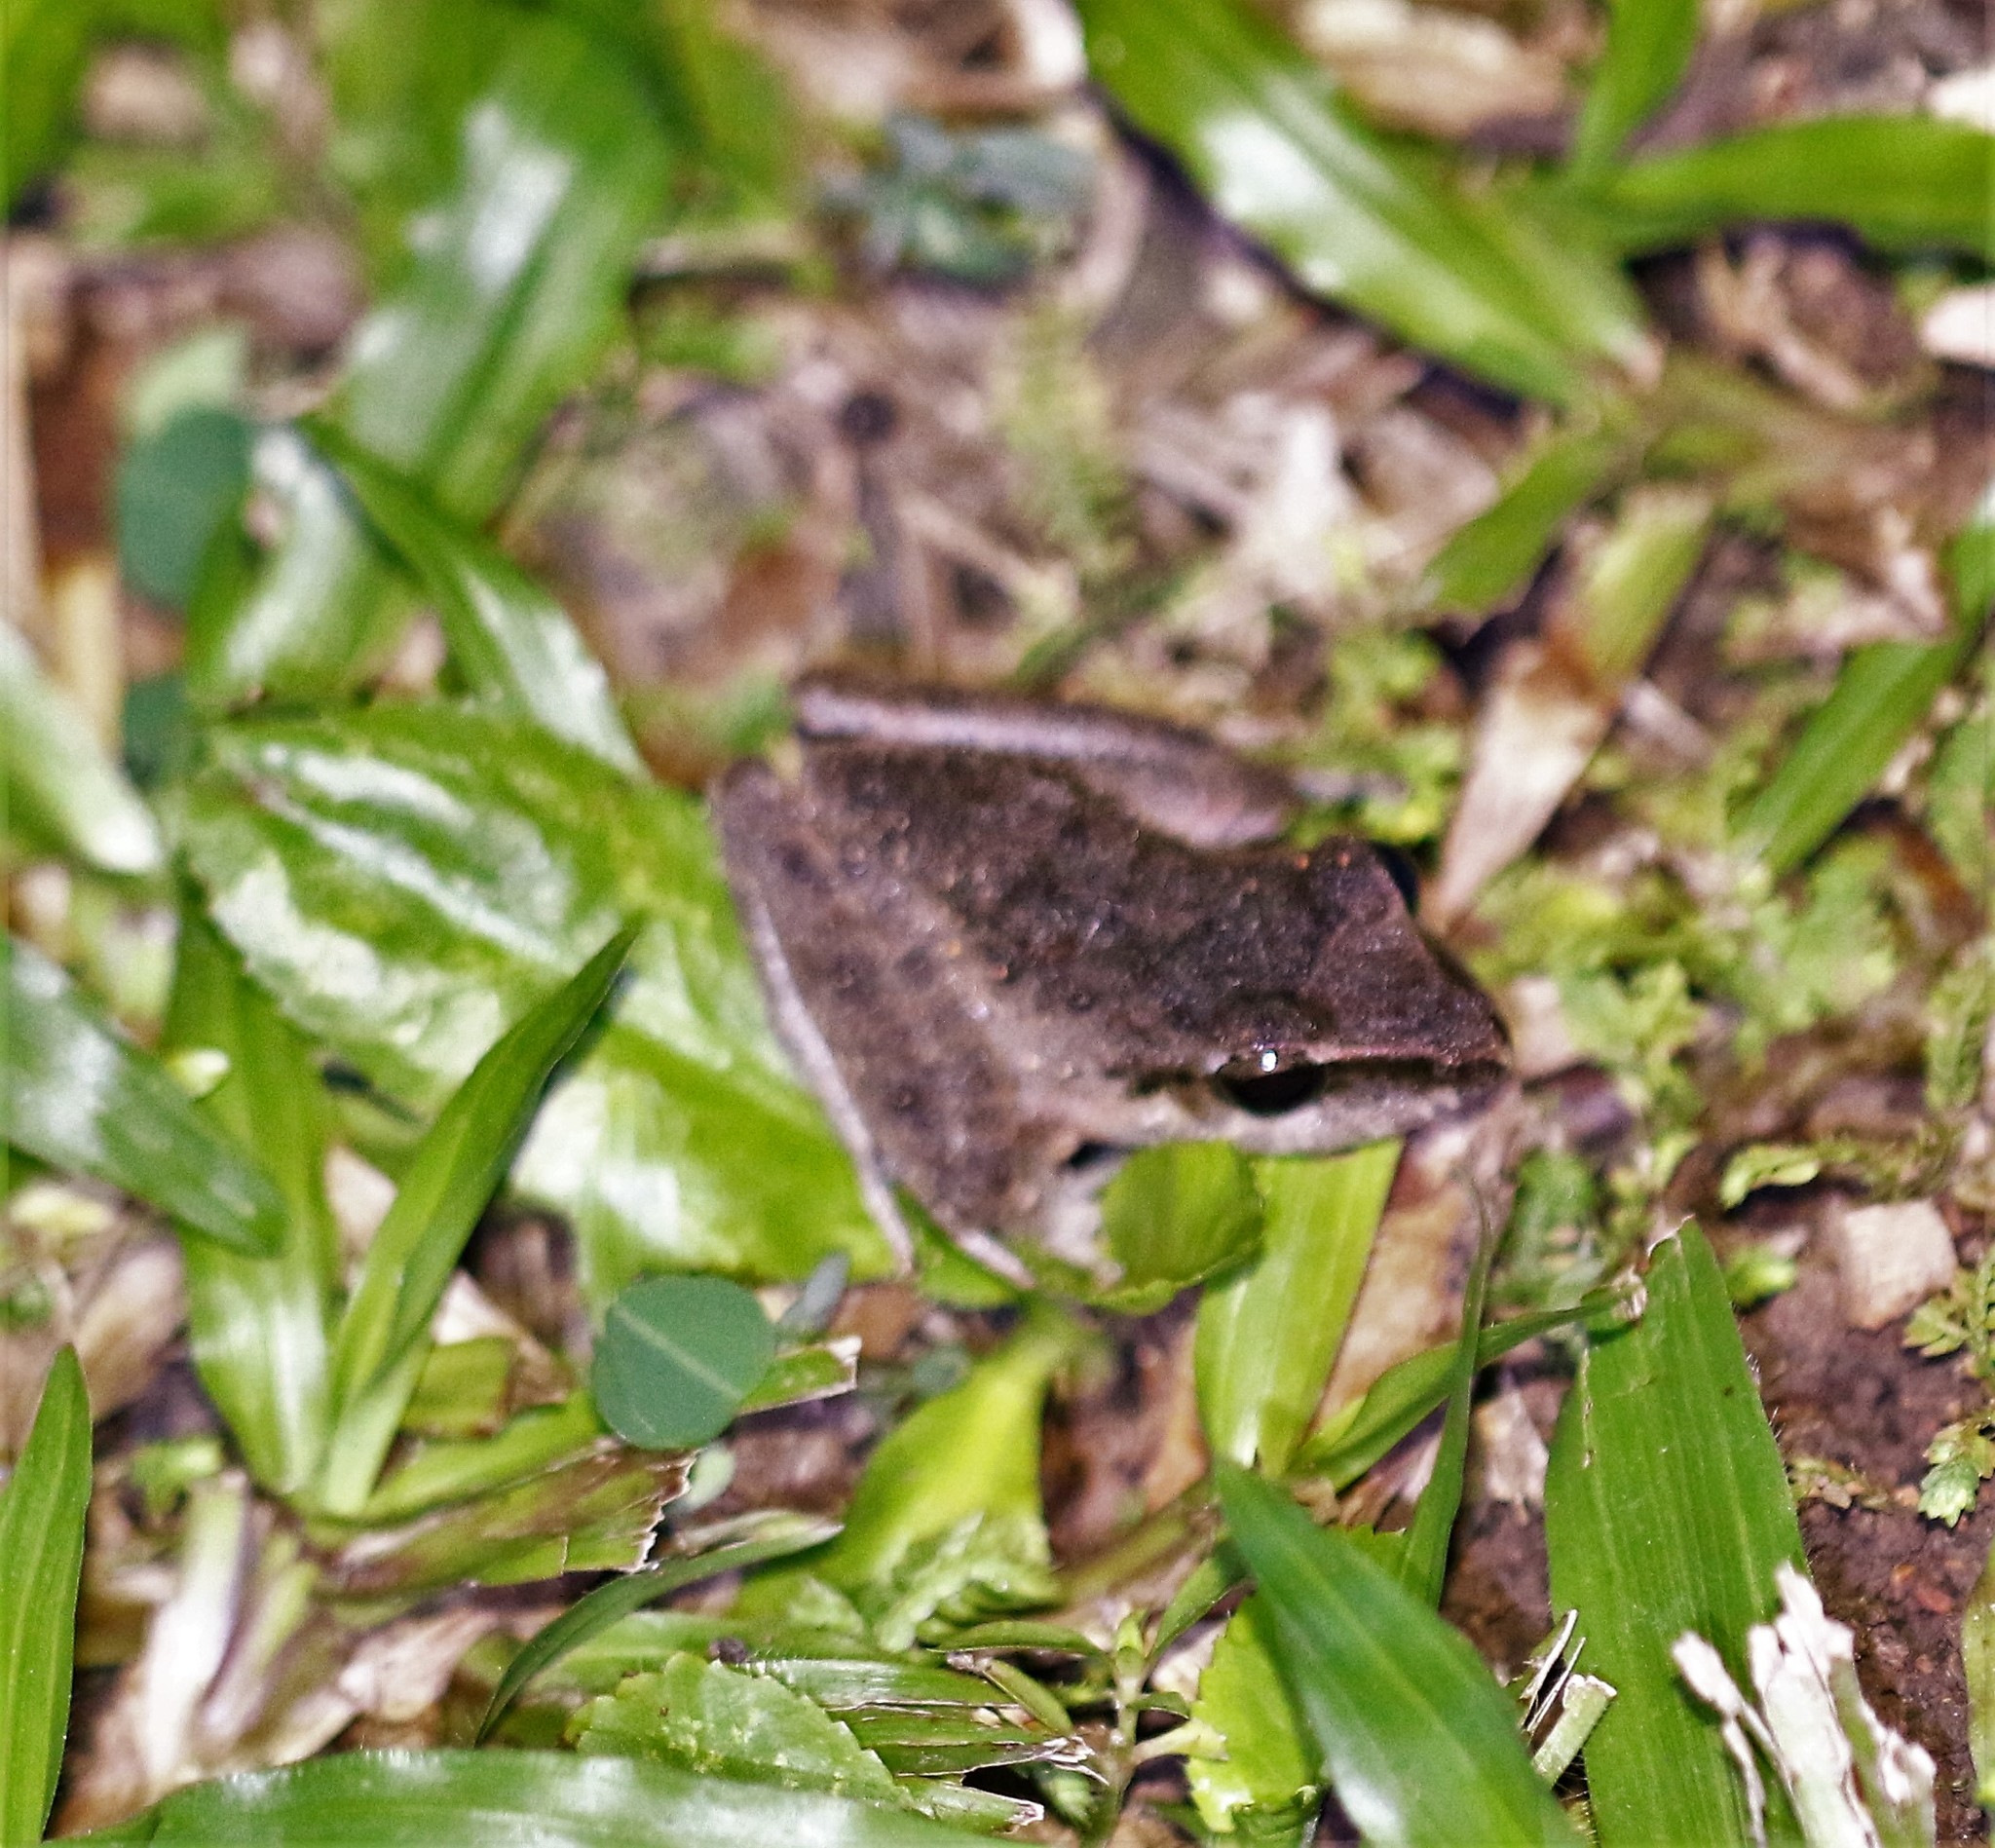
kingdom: Animalia
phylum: Chordata
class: Amphibia
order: Anura
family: Craugastoridae
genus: Craugastor
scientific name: Craugastor fitzingeri
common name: Fitzinger's robber frog
